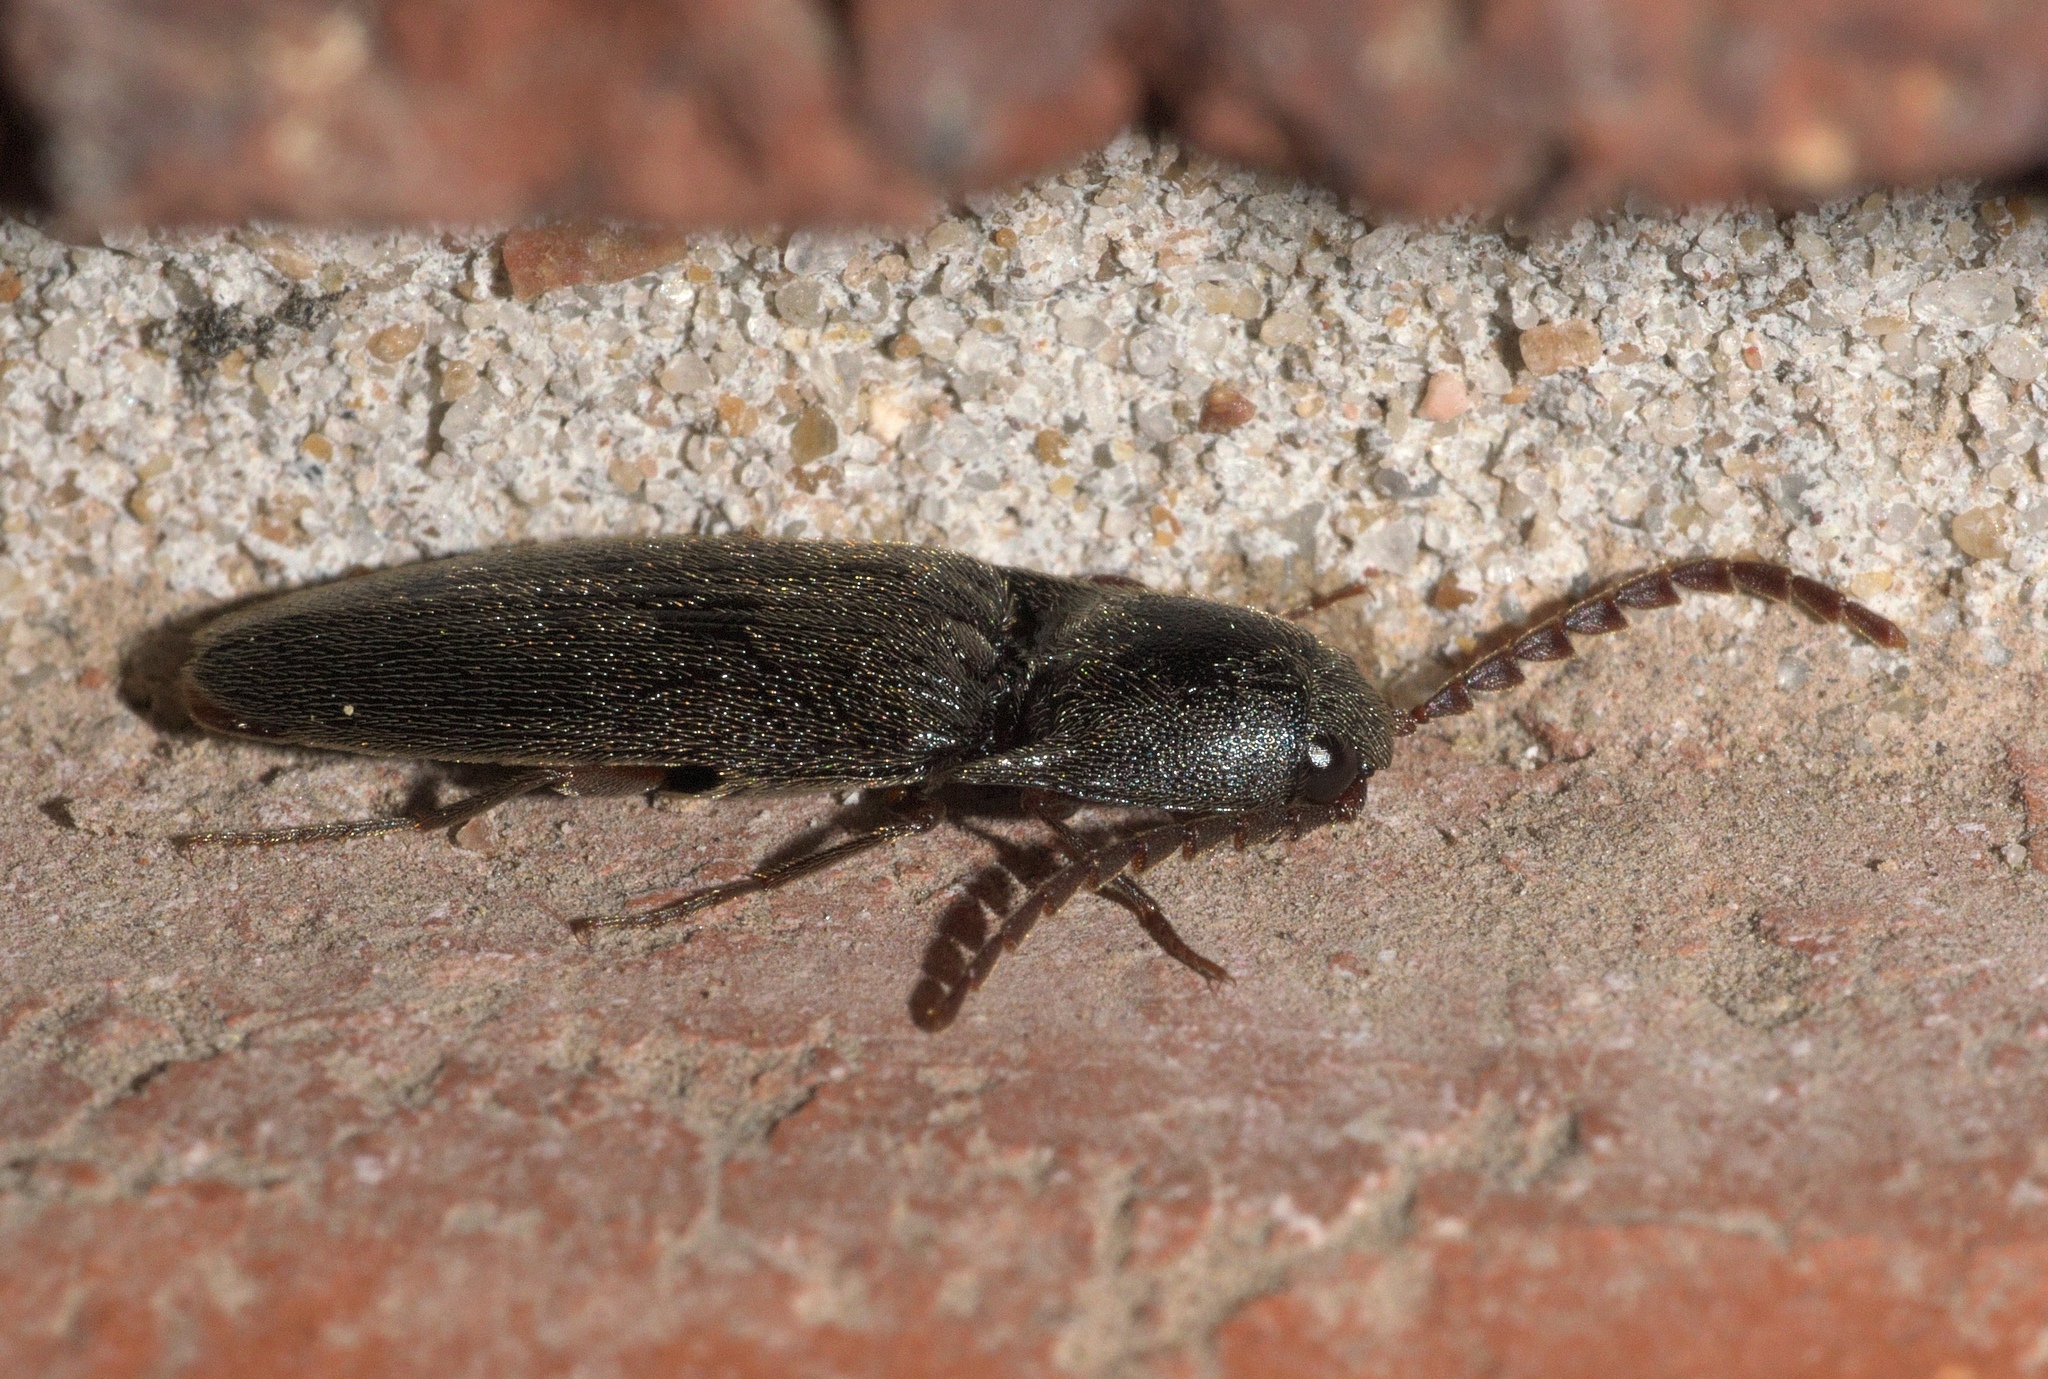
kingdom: Animalia
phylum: Arthropoda
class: Insecta
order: Coleoptera
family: Elateridae
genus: Megapenthes
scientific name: Megapenthes insignis
